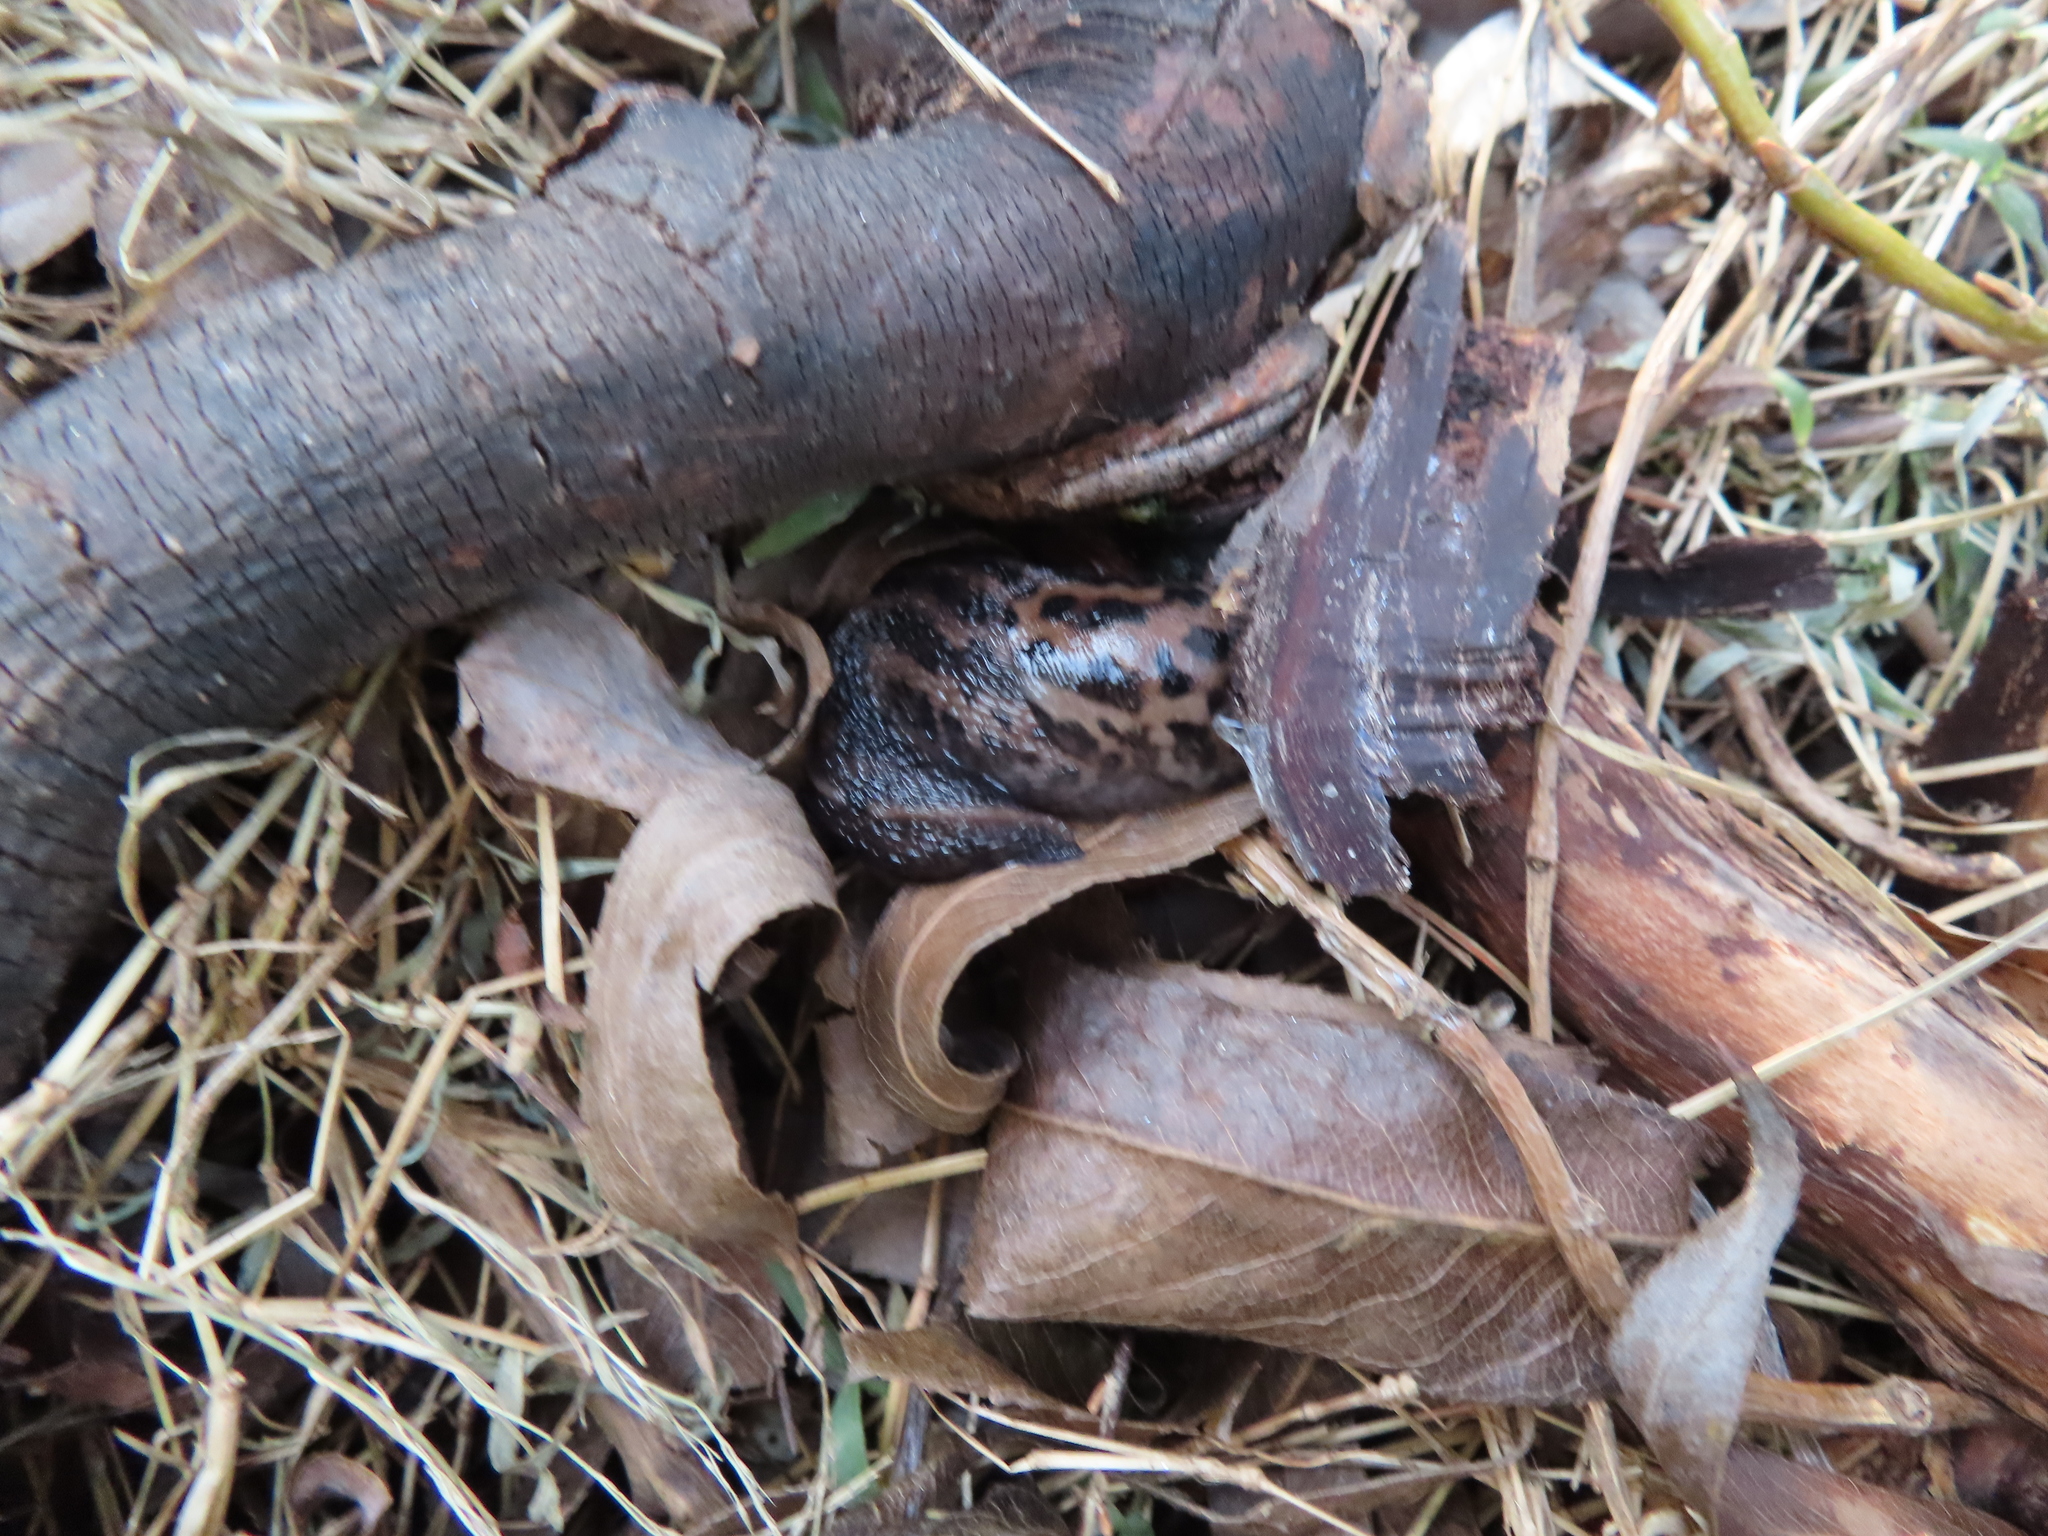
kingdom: Animalia
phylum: Mollusca
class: Gastropoda
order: Stylommatophora
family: Limacidae
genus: Limax
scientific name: Limax maximus
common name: Great grey slug
